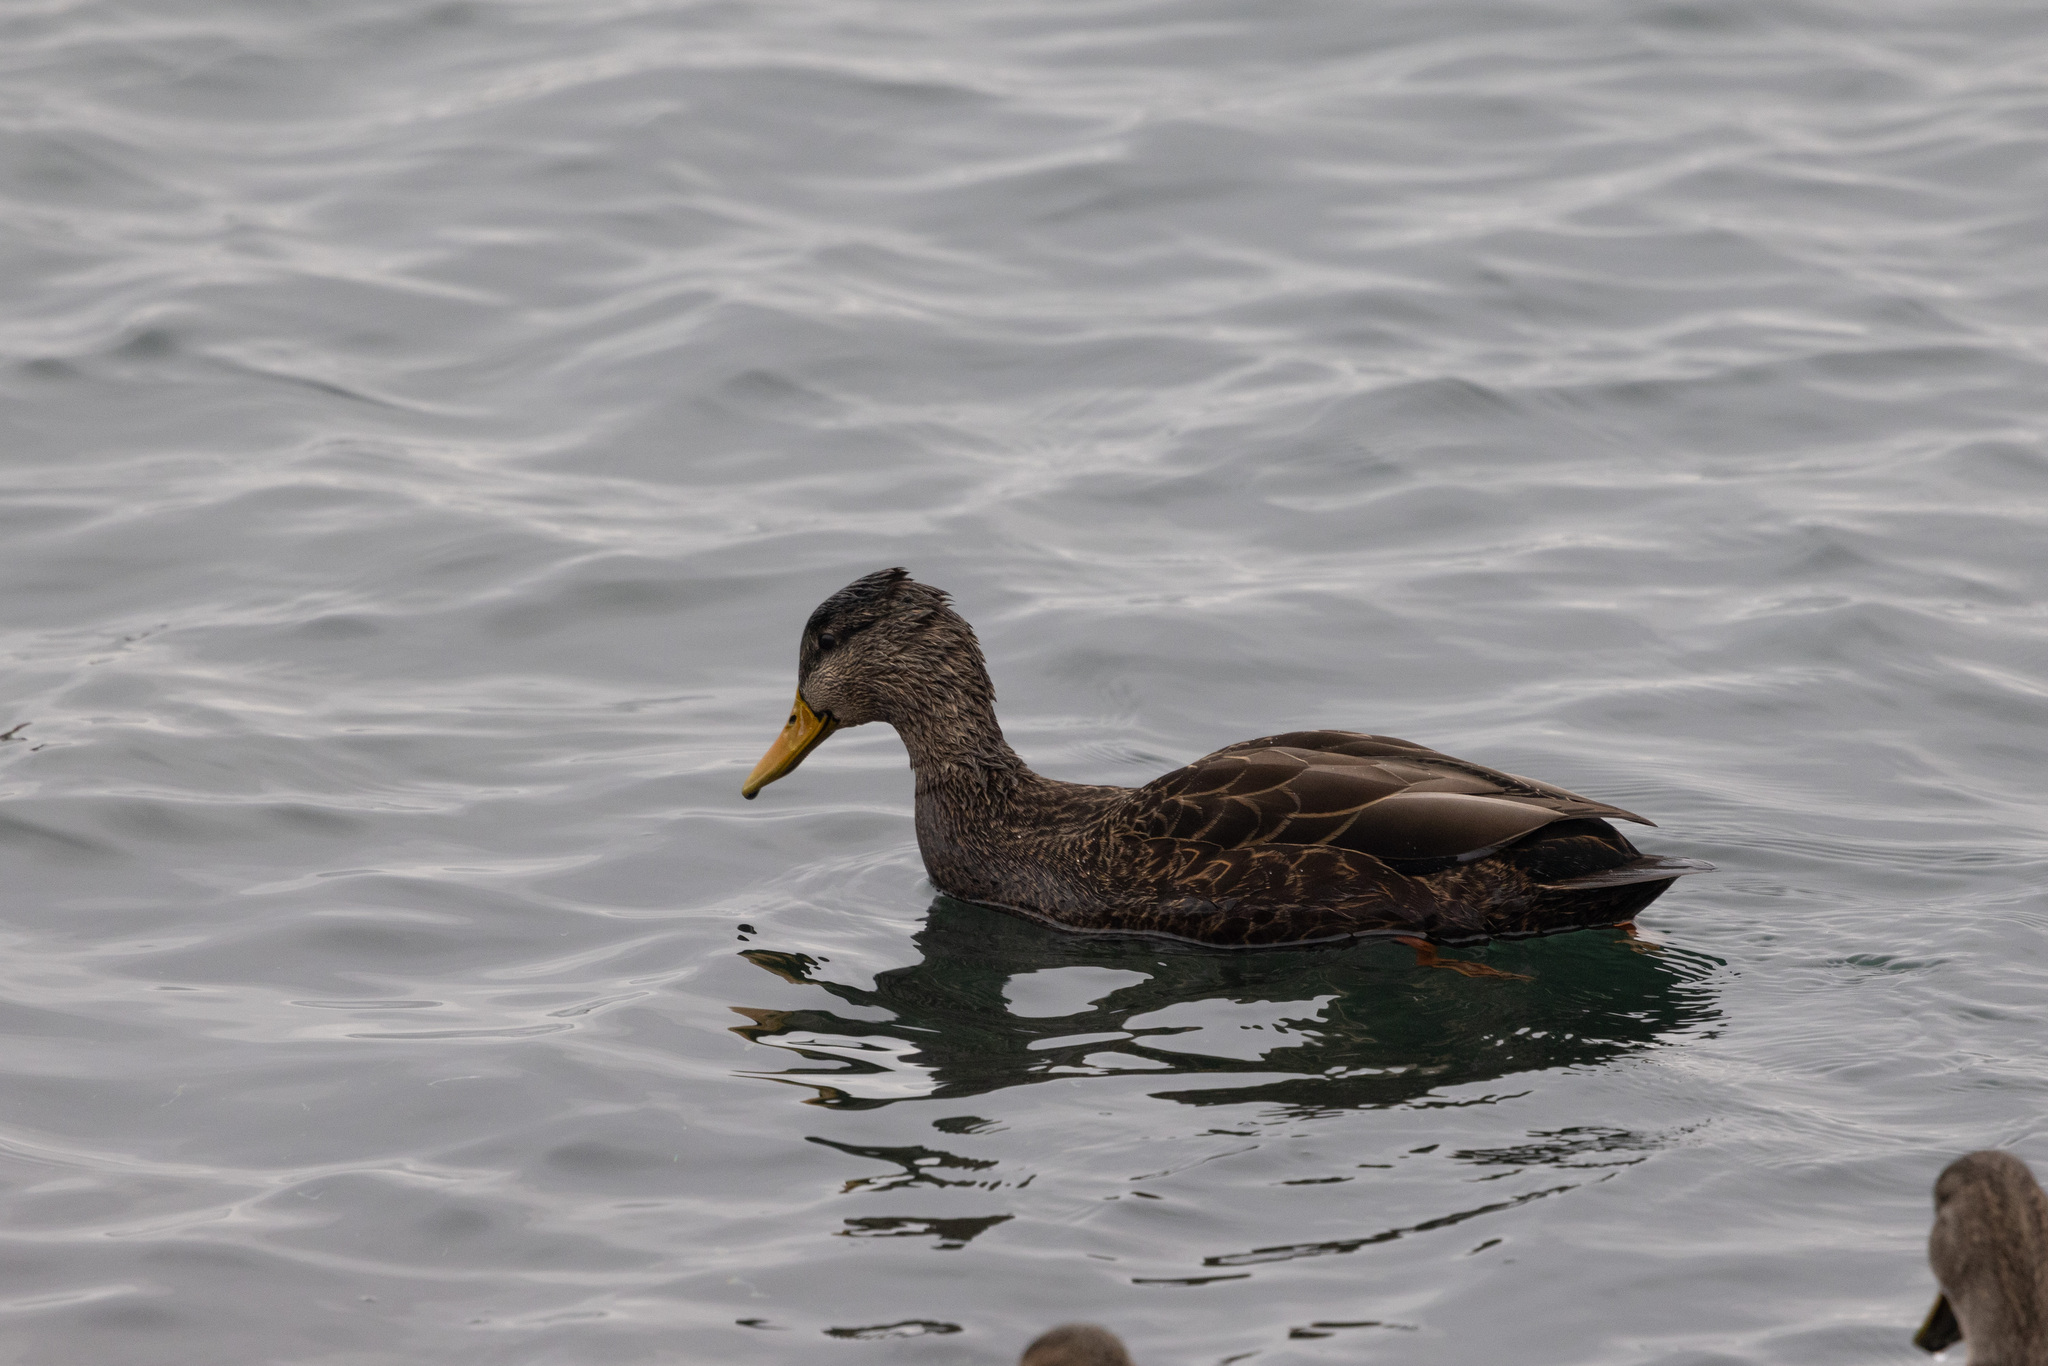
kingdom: Animalia
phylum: Chordata
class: Aves
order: Anseriformes
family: Anatidae
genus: Anas
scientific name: Anas rubripes
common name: American black duck
